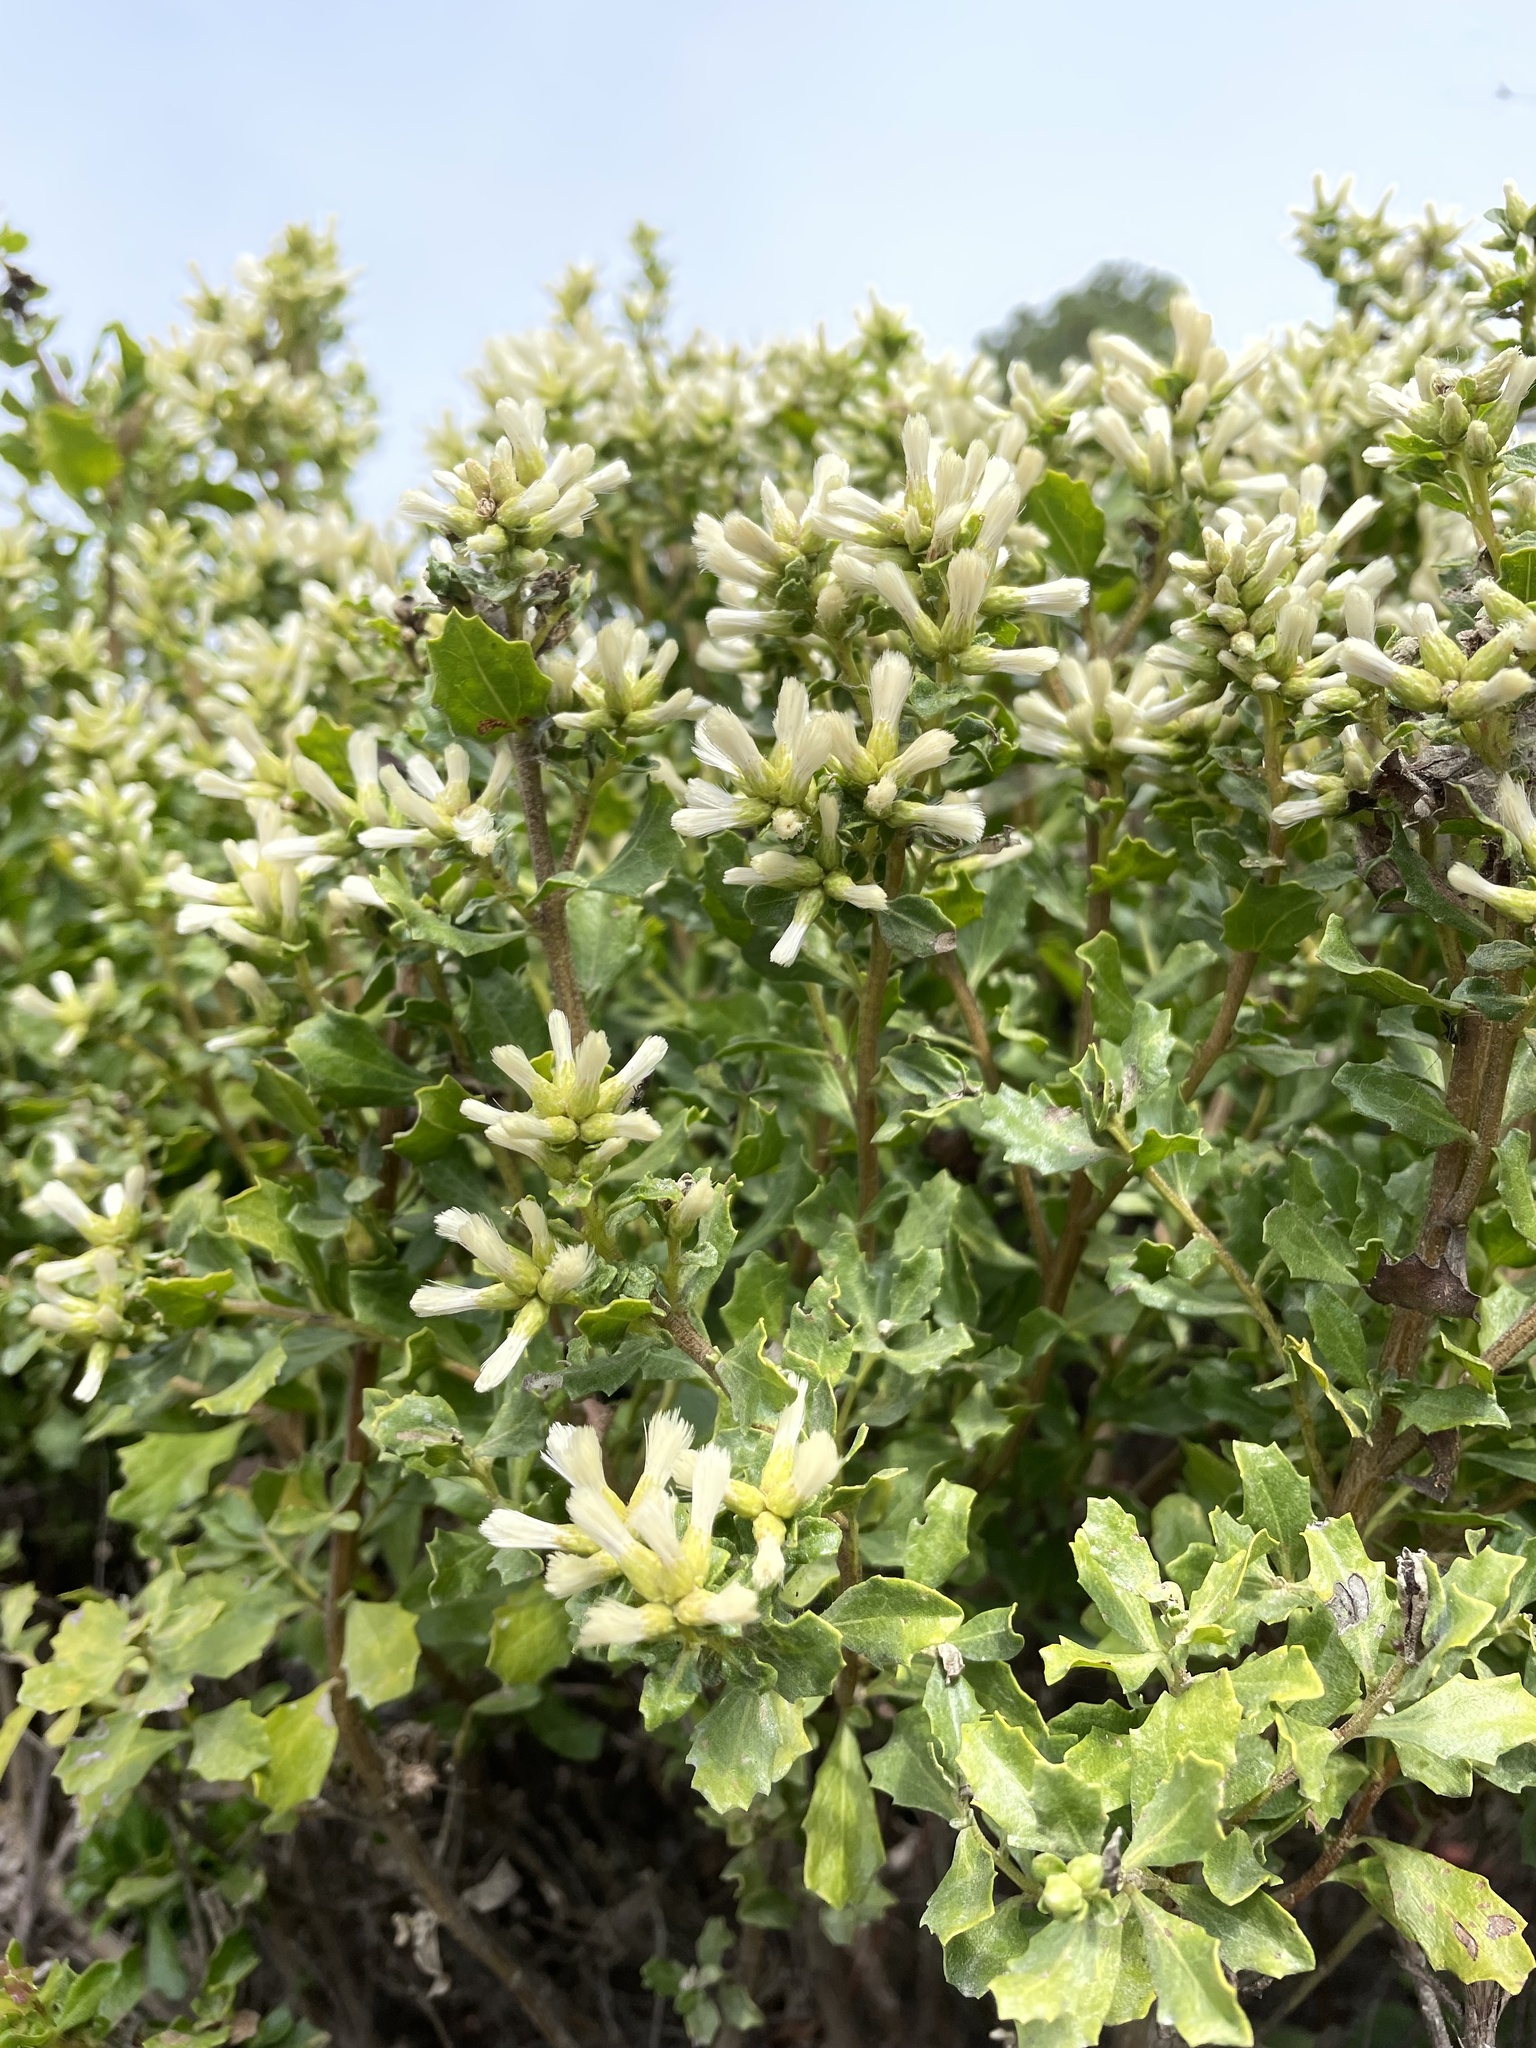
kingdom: Animalia
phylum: Arthropoda
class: Insecta
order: Hymenoptera
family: Apidae
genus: Apis
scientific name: Apis mellifera
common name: Honey bee
